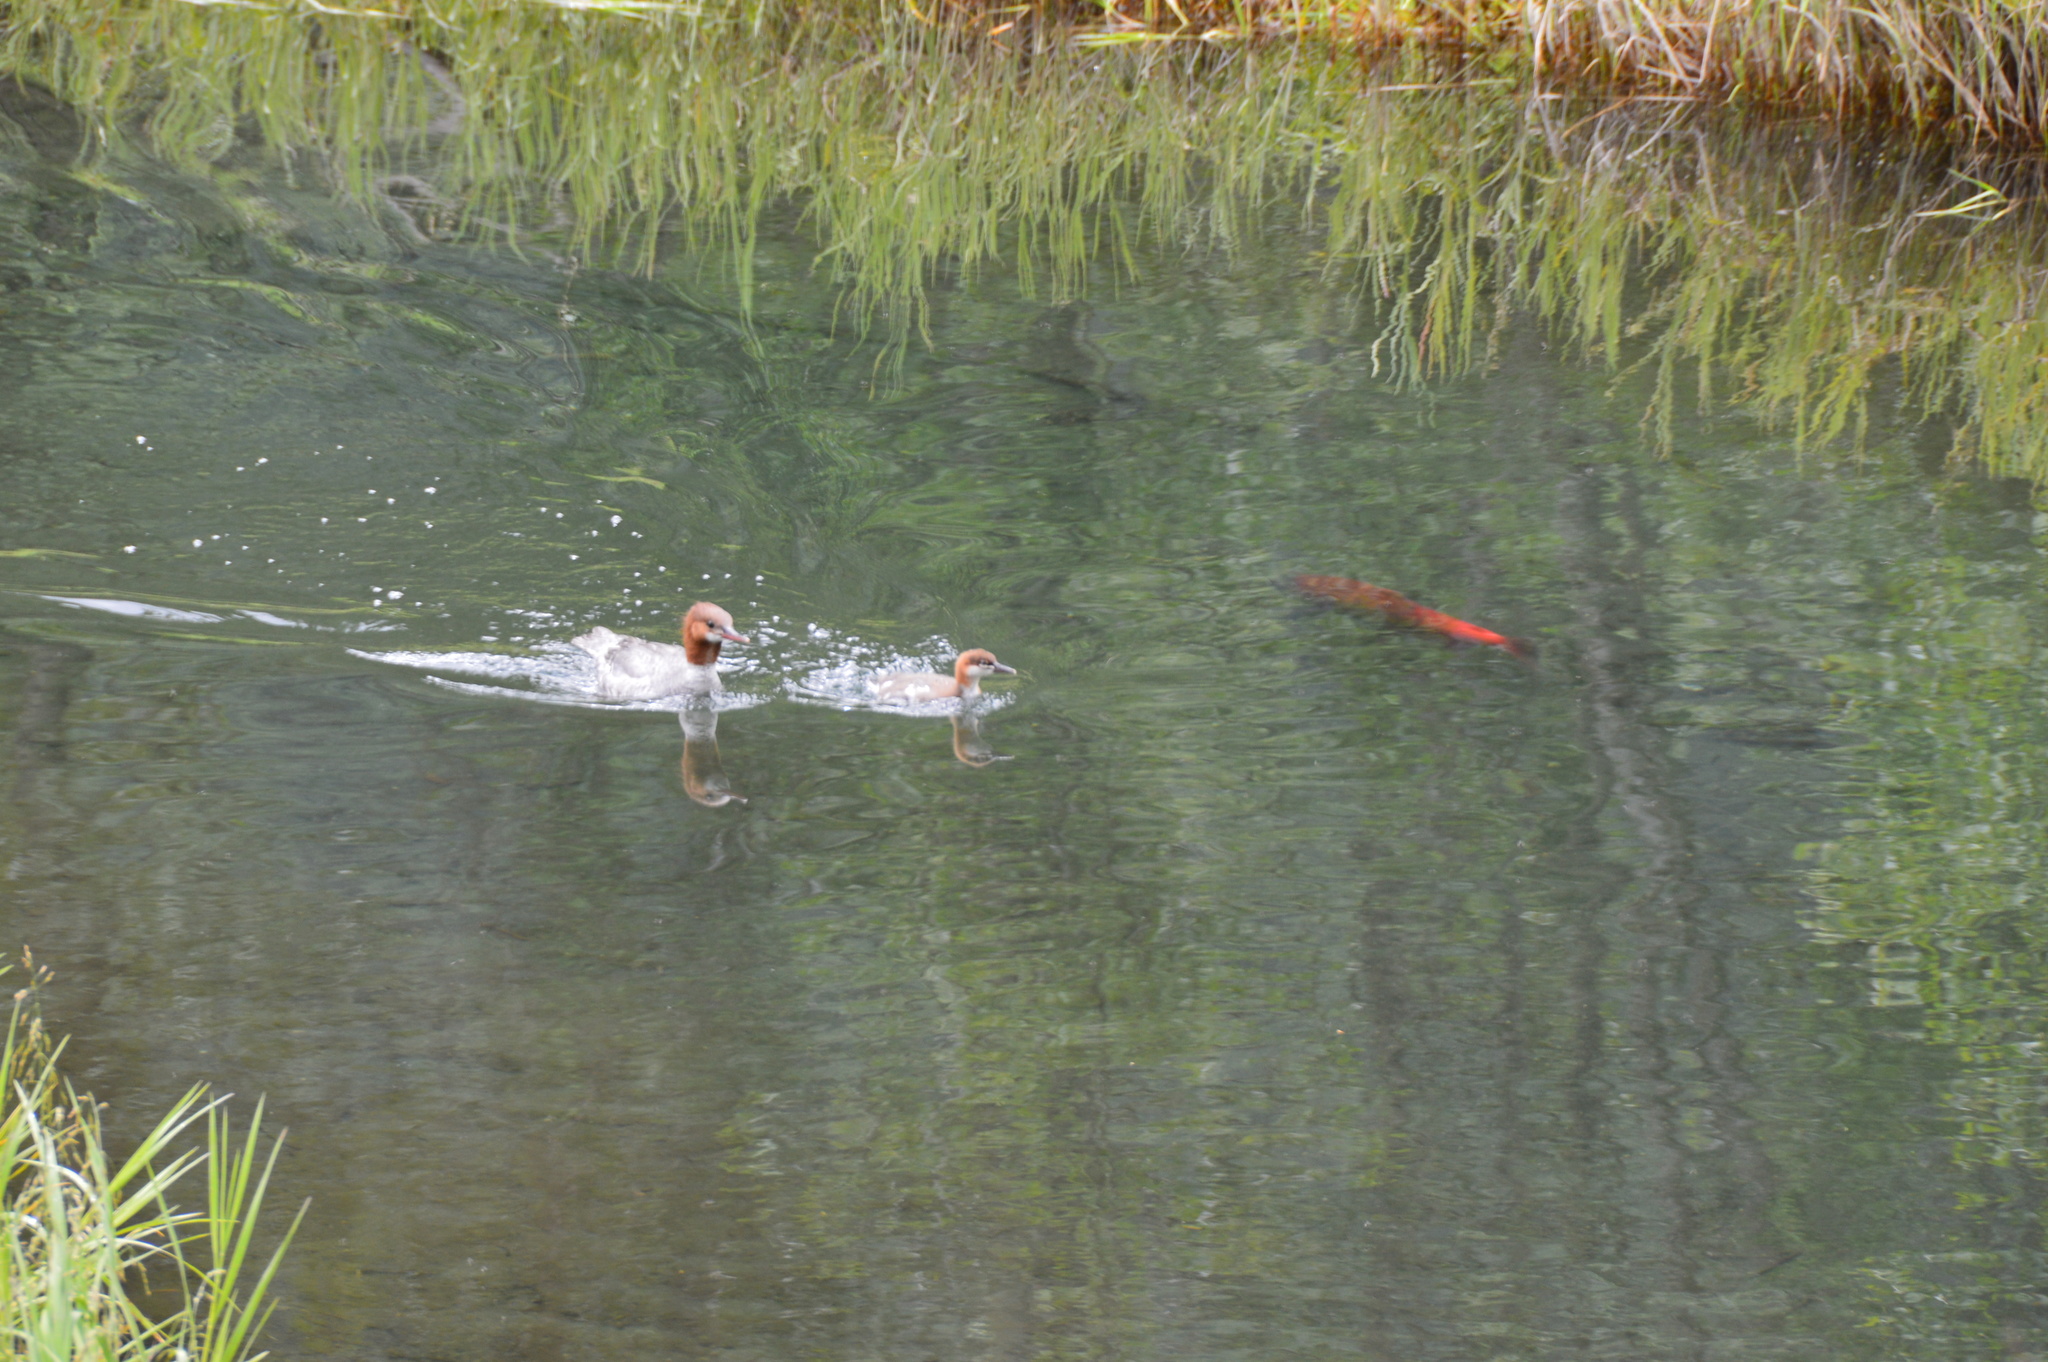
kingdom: Animalia
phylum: Chordata
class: Aves
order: Anseriformes
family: Anatidae
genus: Mergus
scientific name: Mergus merganser
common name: Common merganser
